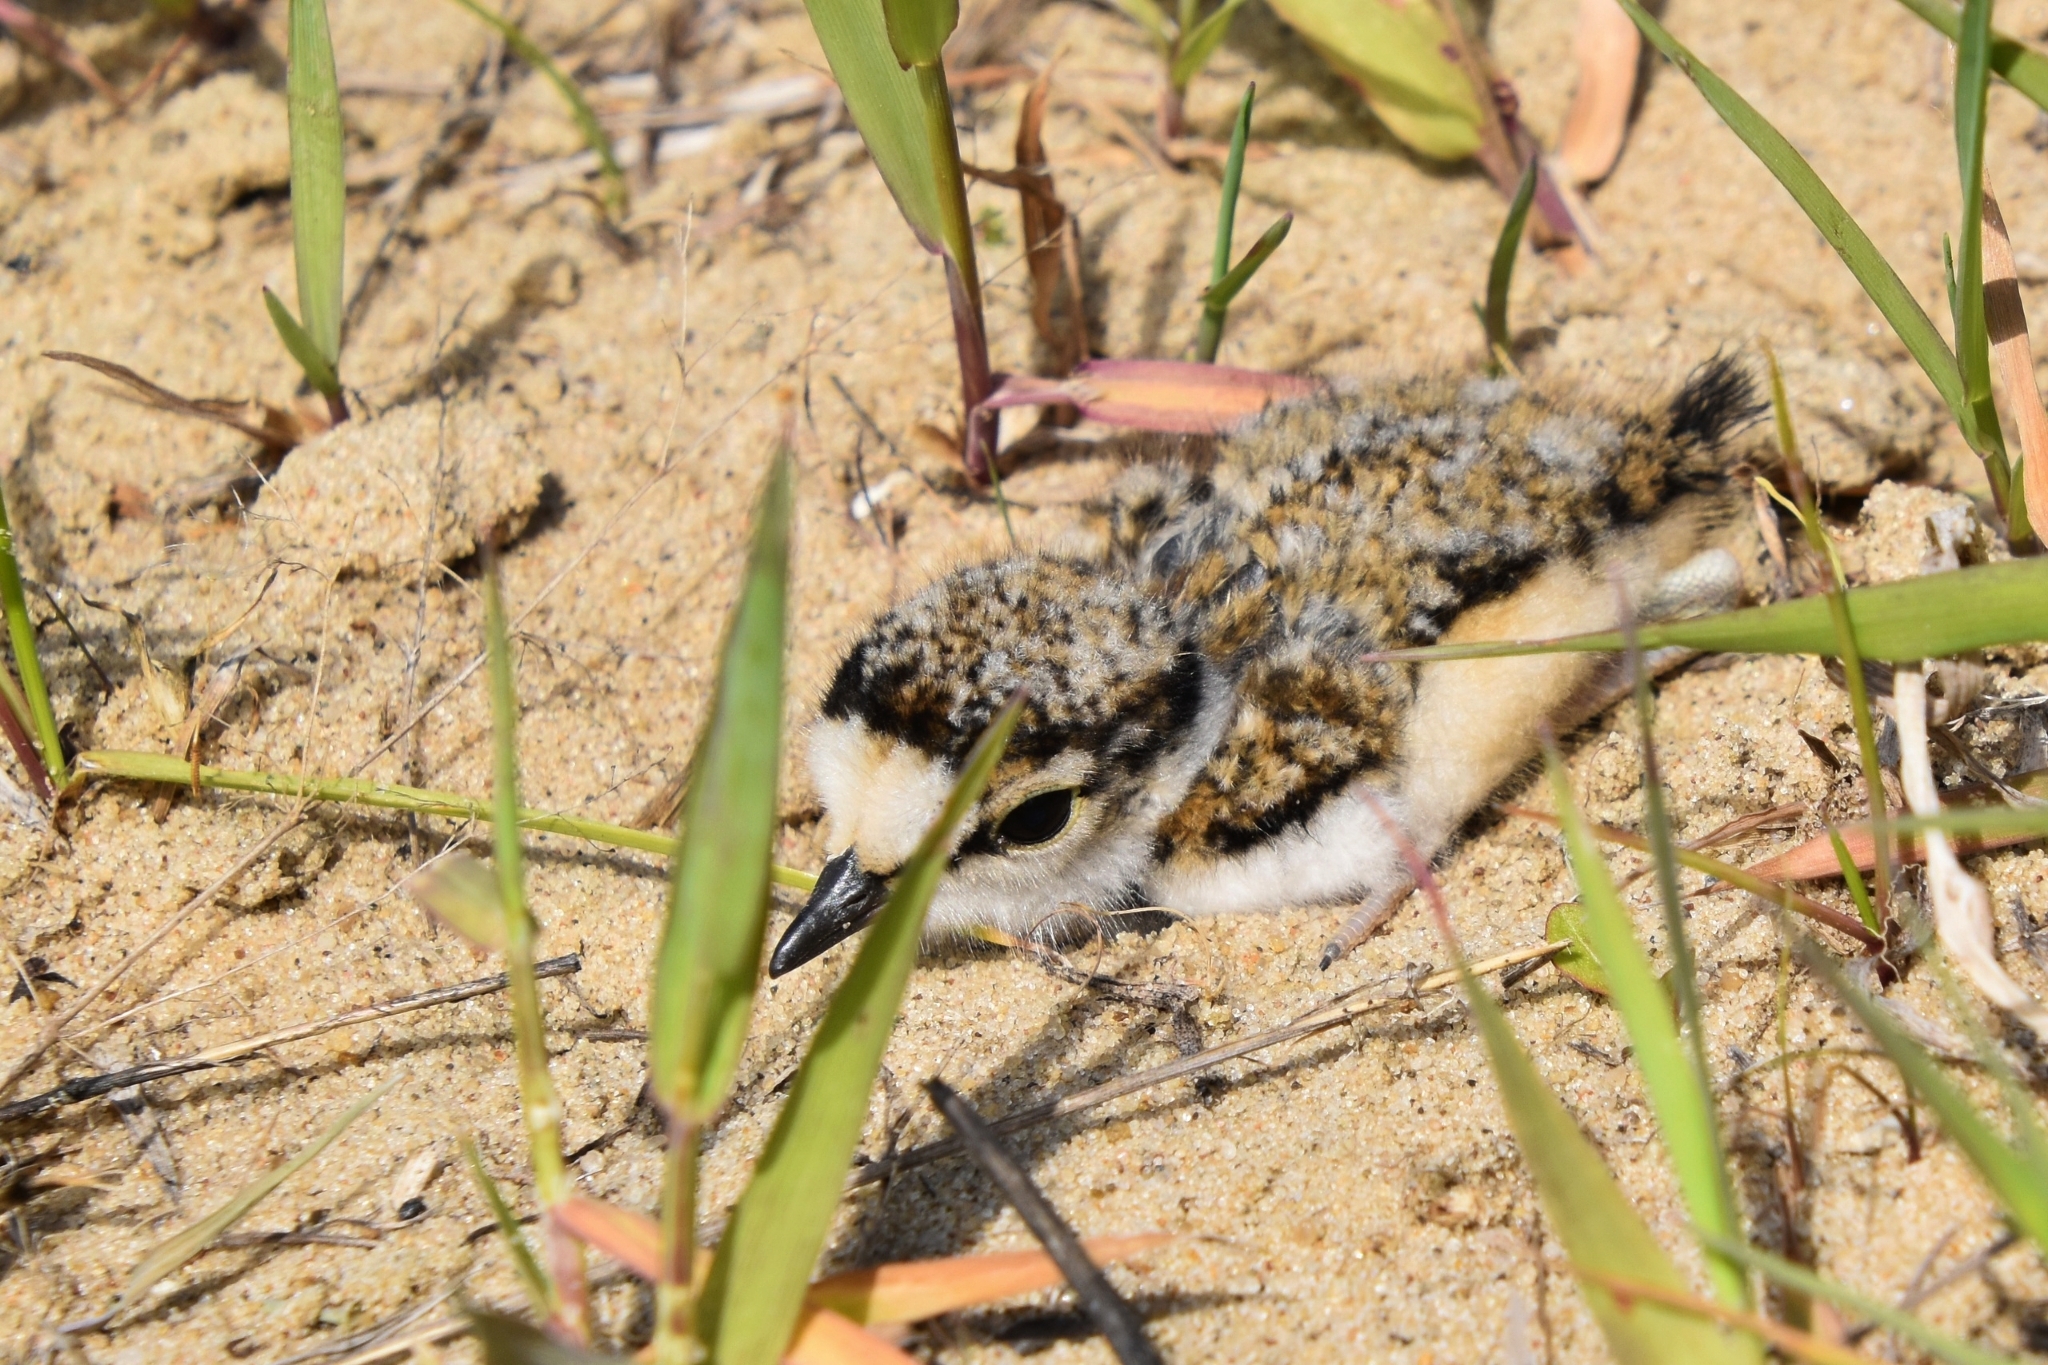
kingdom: Animalia
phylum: Chordata
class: Aves
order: Charadriiformes
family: Charadriidae
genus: Charadrius
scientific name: Charadrius dubius
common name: Little ringed plover
